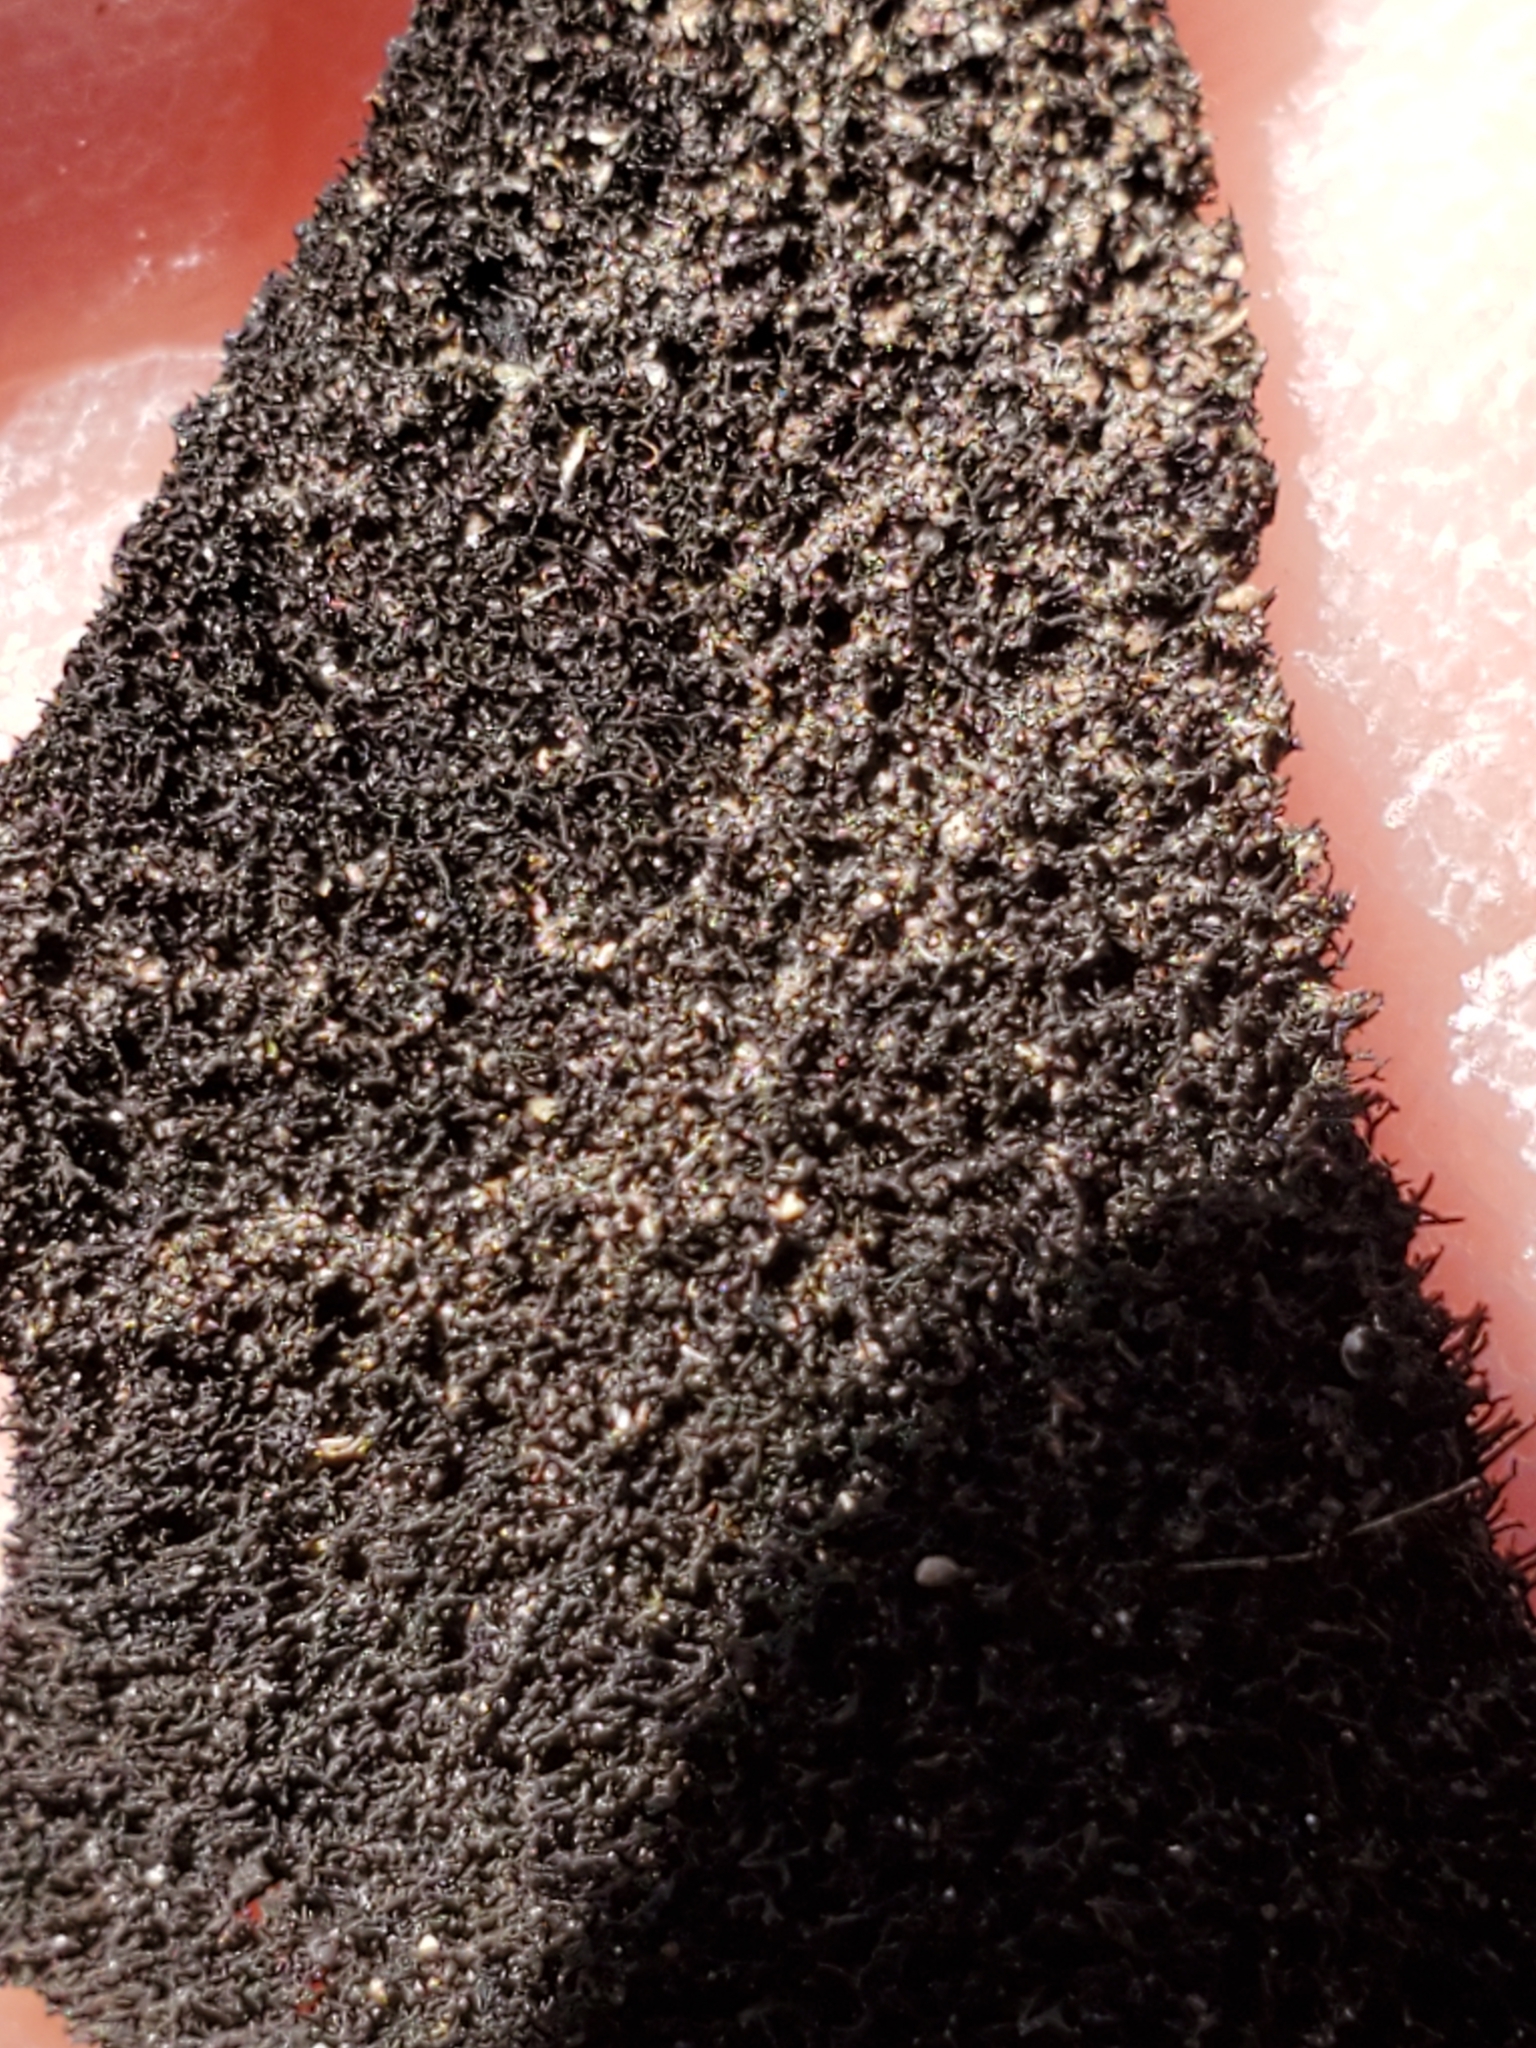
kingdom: Fungi
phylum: Ascomycota
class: Lecanoromycetes
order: Umbilicariales
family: Umbilicariaceae
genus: Umbilicaria
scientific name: Umbilicaria mammulata
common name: Smooth rock tripe
